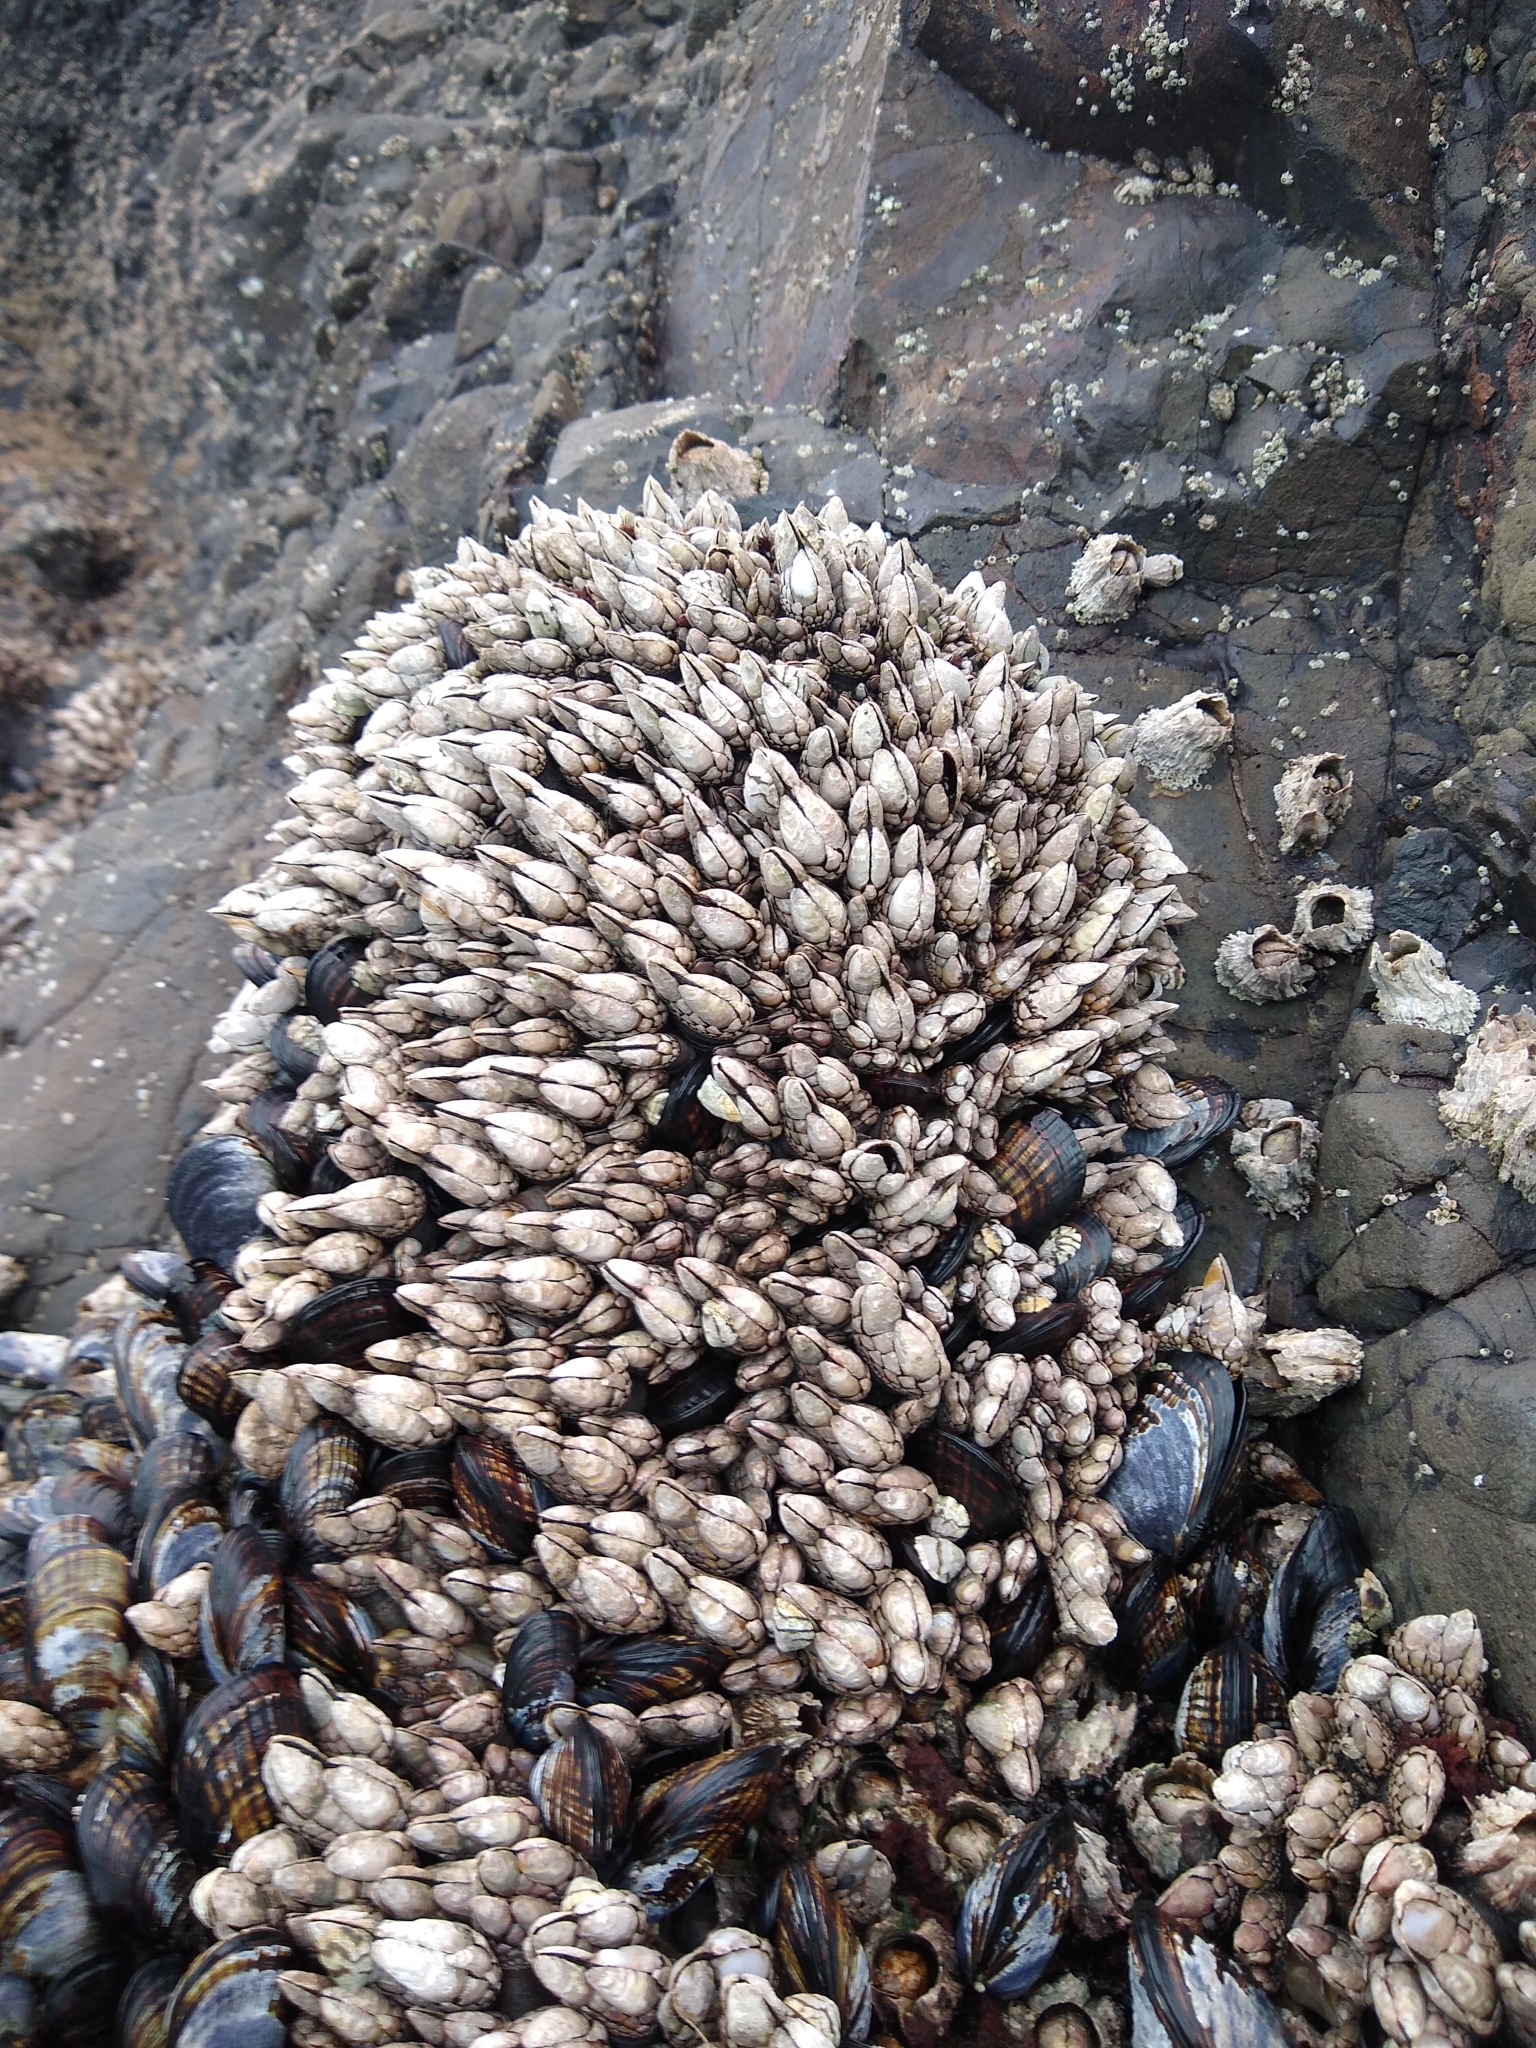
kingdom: Animalia
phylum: Arthropoda
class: Maxillopoda
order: Pedunculata
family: Pollicipedidae
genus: Pollicipes
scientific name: Pollicipes polymerus
